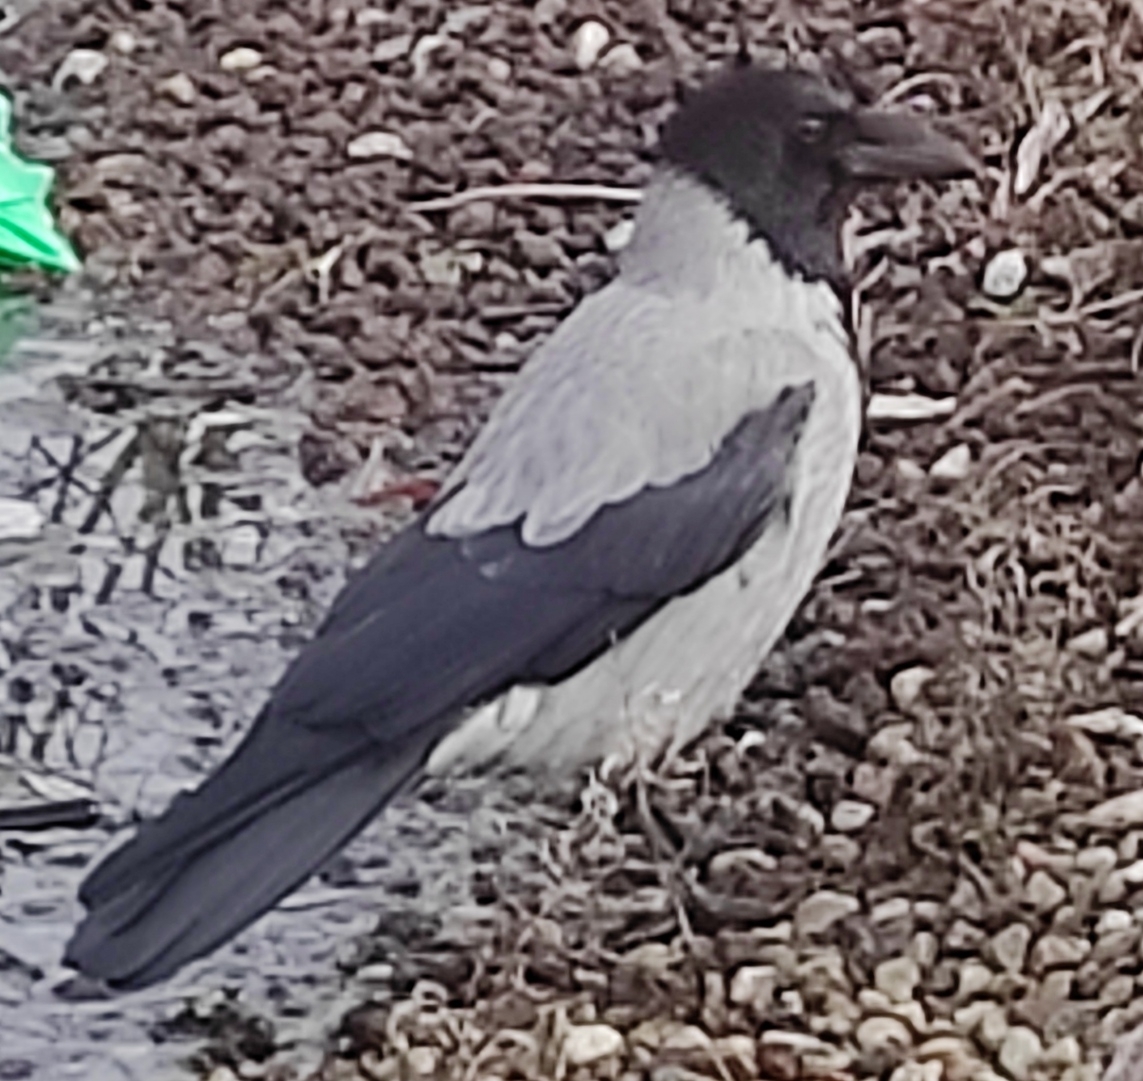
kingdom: Animalia
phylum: Chordata
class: Aves
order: Passeriformes
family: Corvidae
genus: Corvus
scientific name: Corvus cornix
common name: Hooded crow
